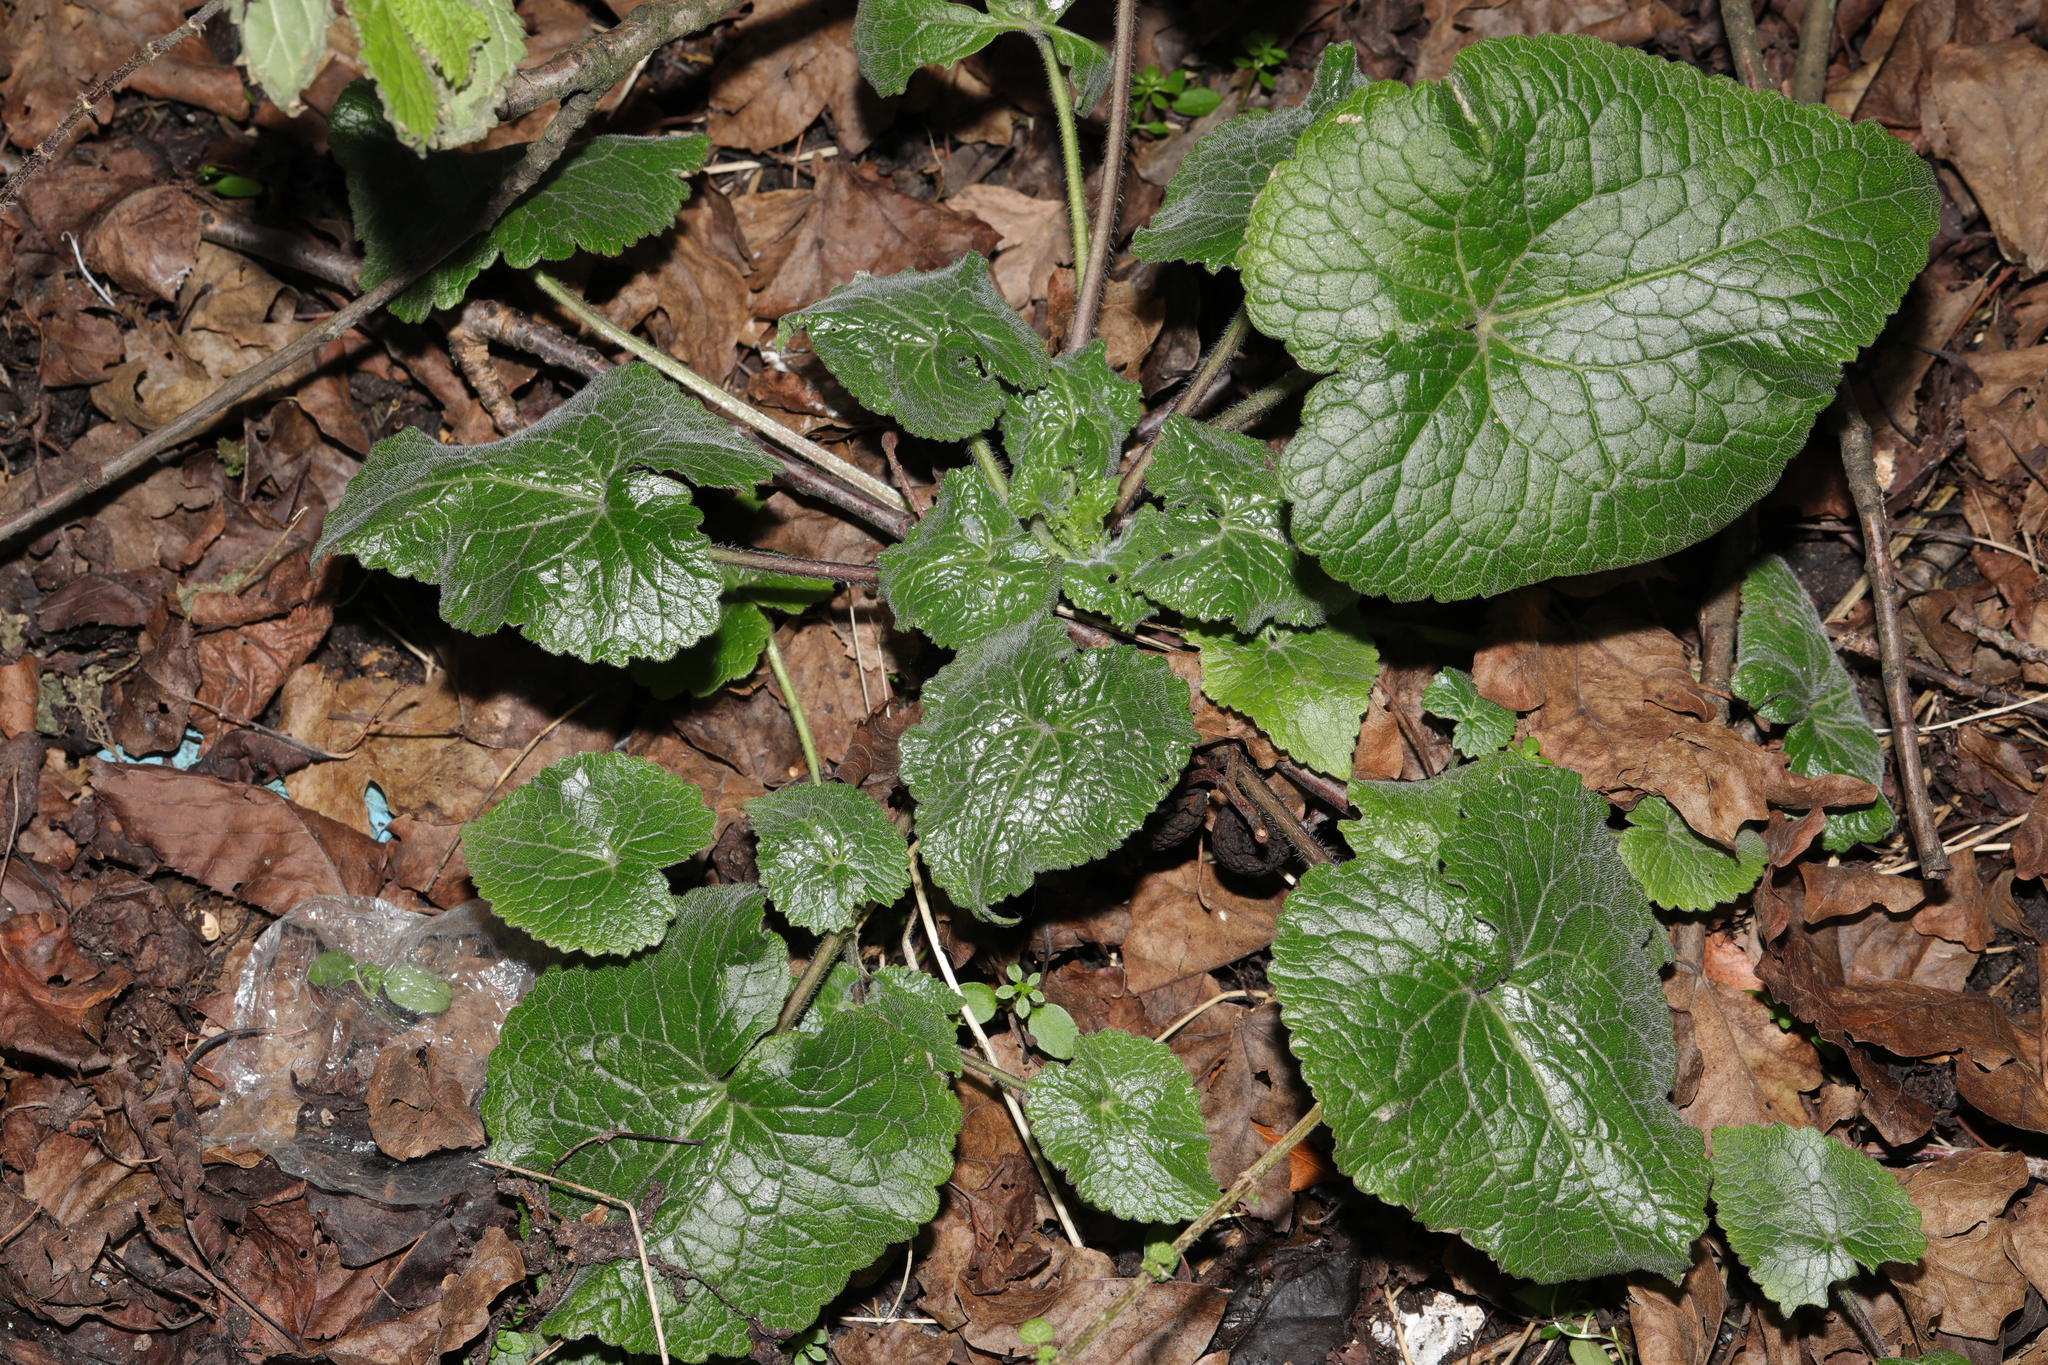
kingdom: Plantae
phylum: Tracheophyta
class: Magnoliopsida
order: Brassicales
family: Brassicaceae
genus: Lunaria
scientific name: Lunaria annua
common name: Honesty
